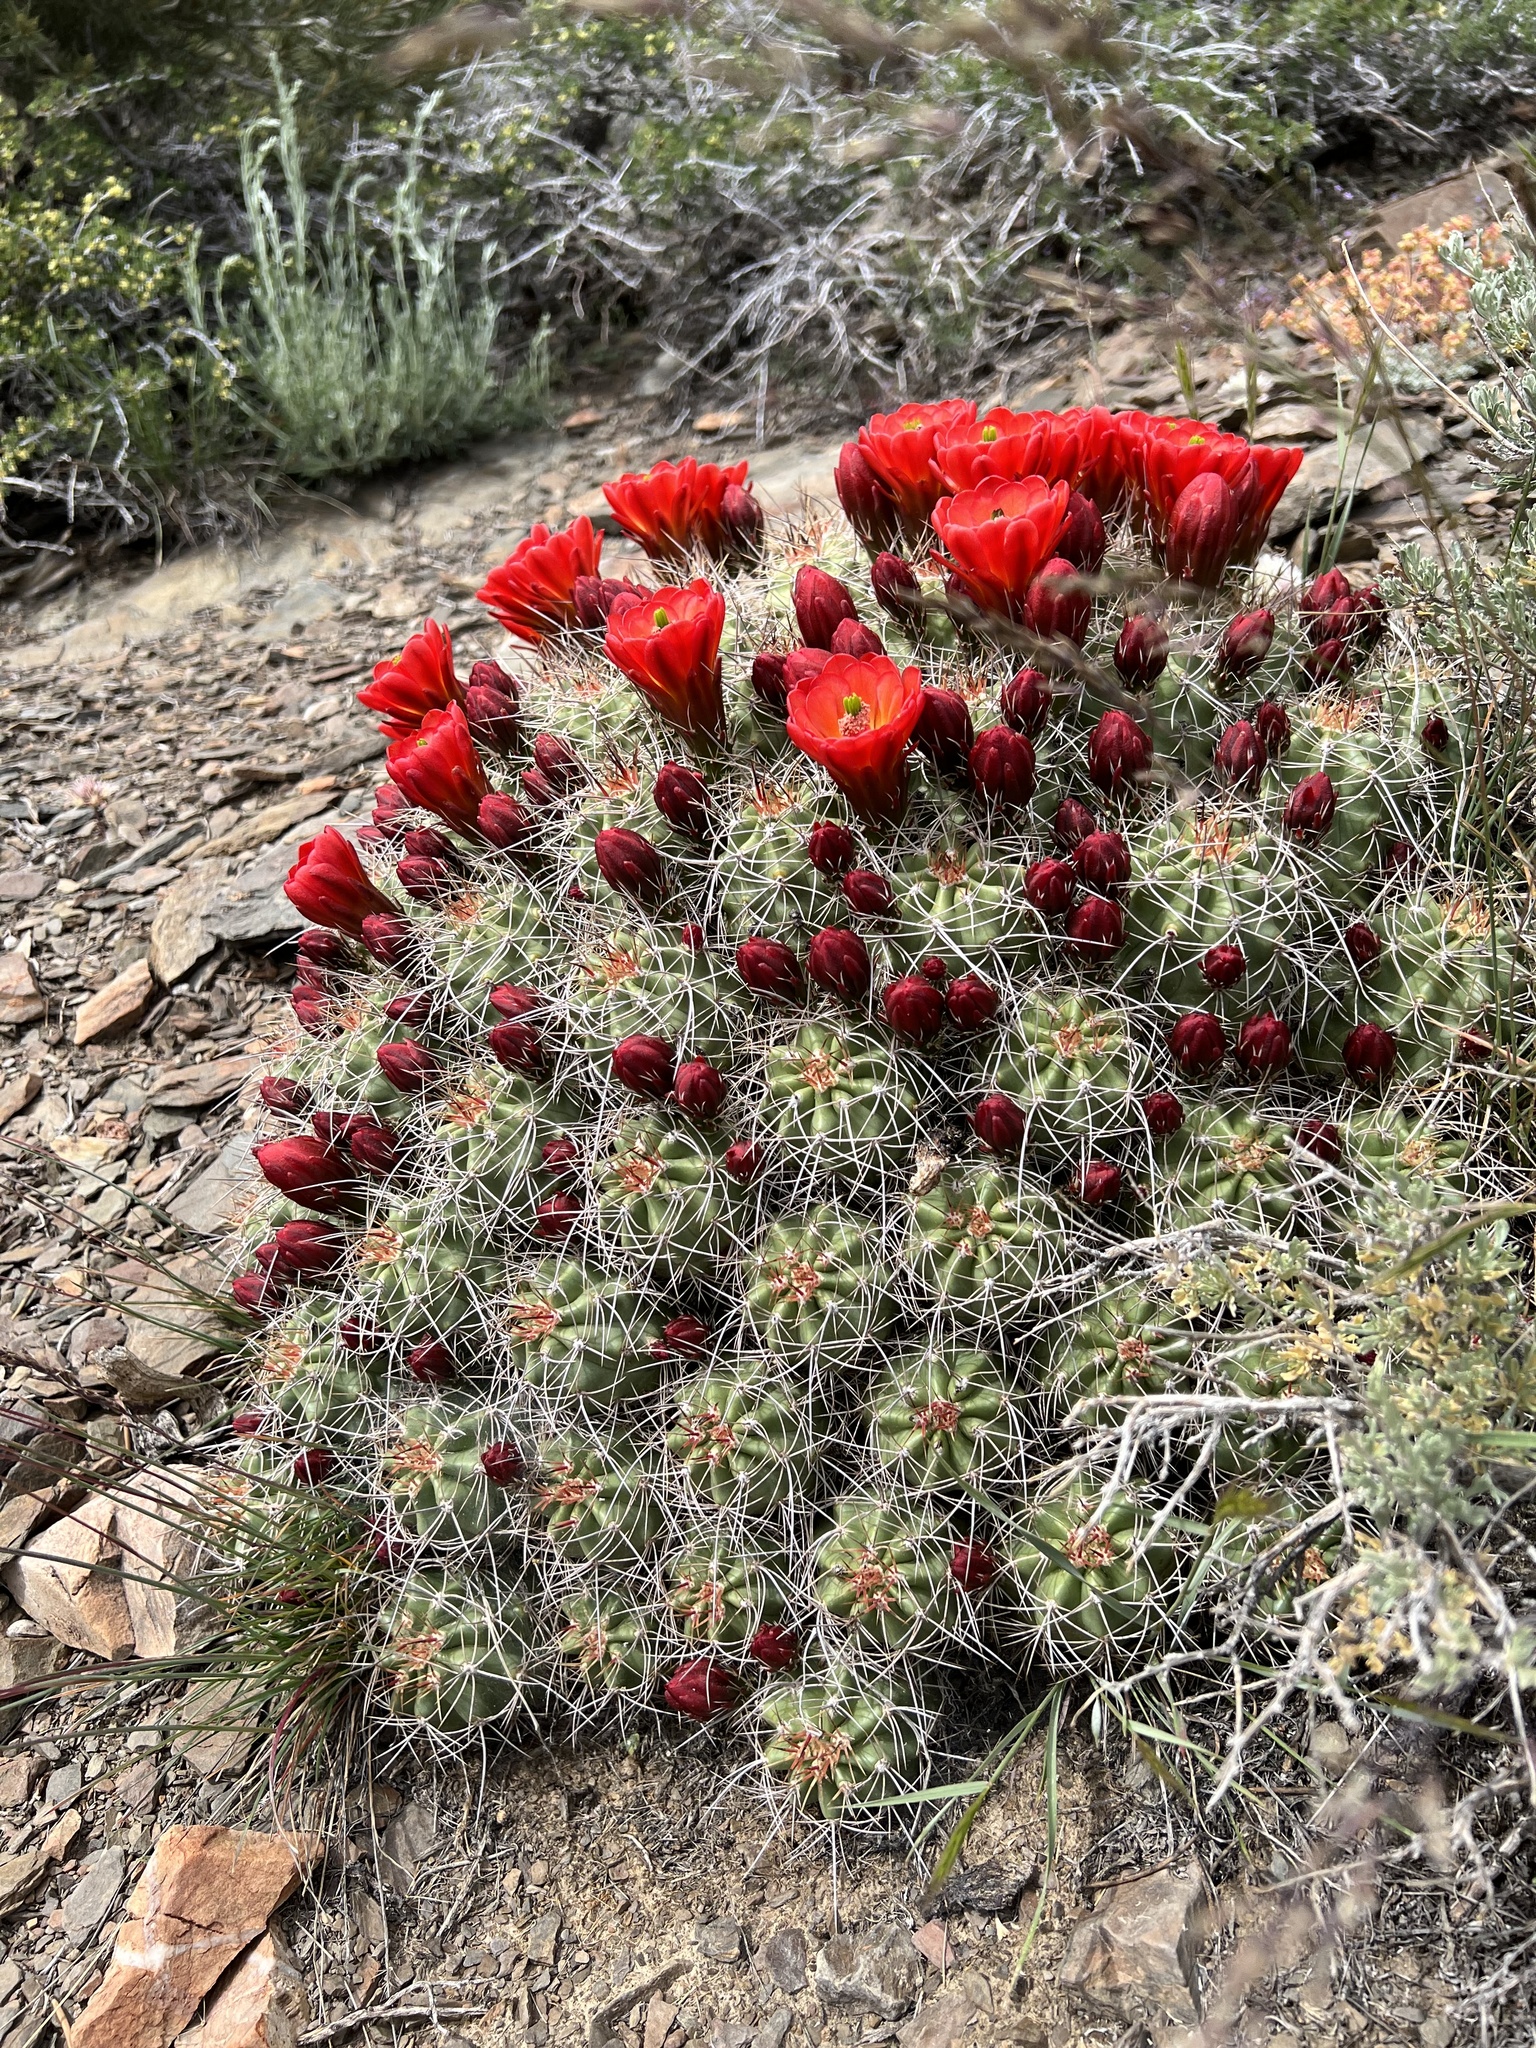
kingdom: Plantae
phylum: Tracheophyta
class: Magnoliopsida
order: Caryophyllales
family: Cactaceae
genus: Echinocereus
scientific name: Echinocereus triglochidiatus
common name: Claretcup hedgehog
